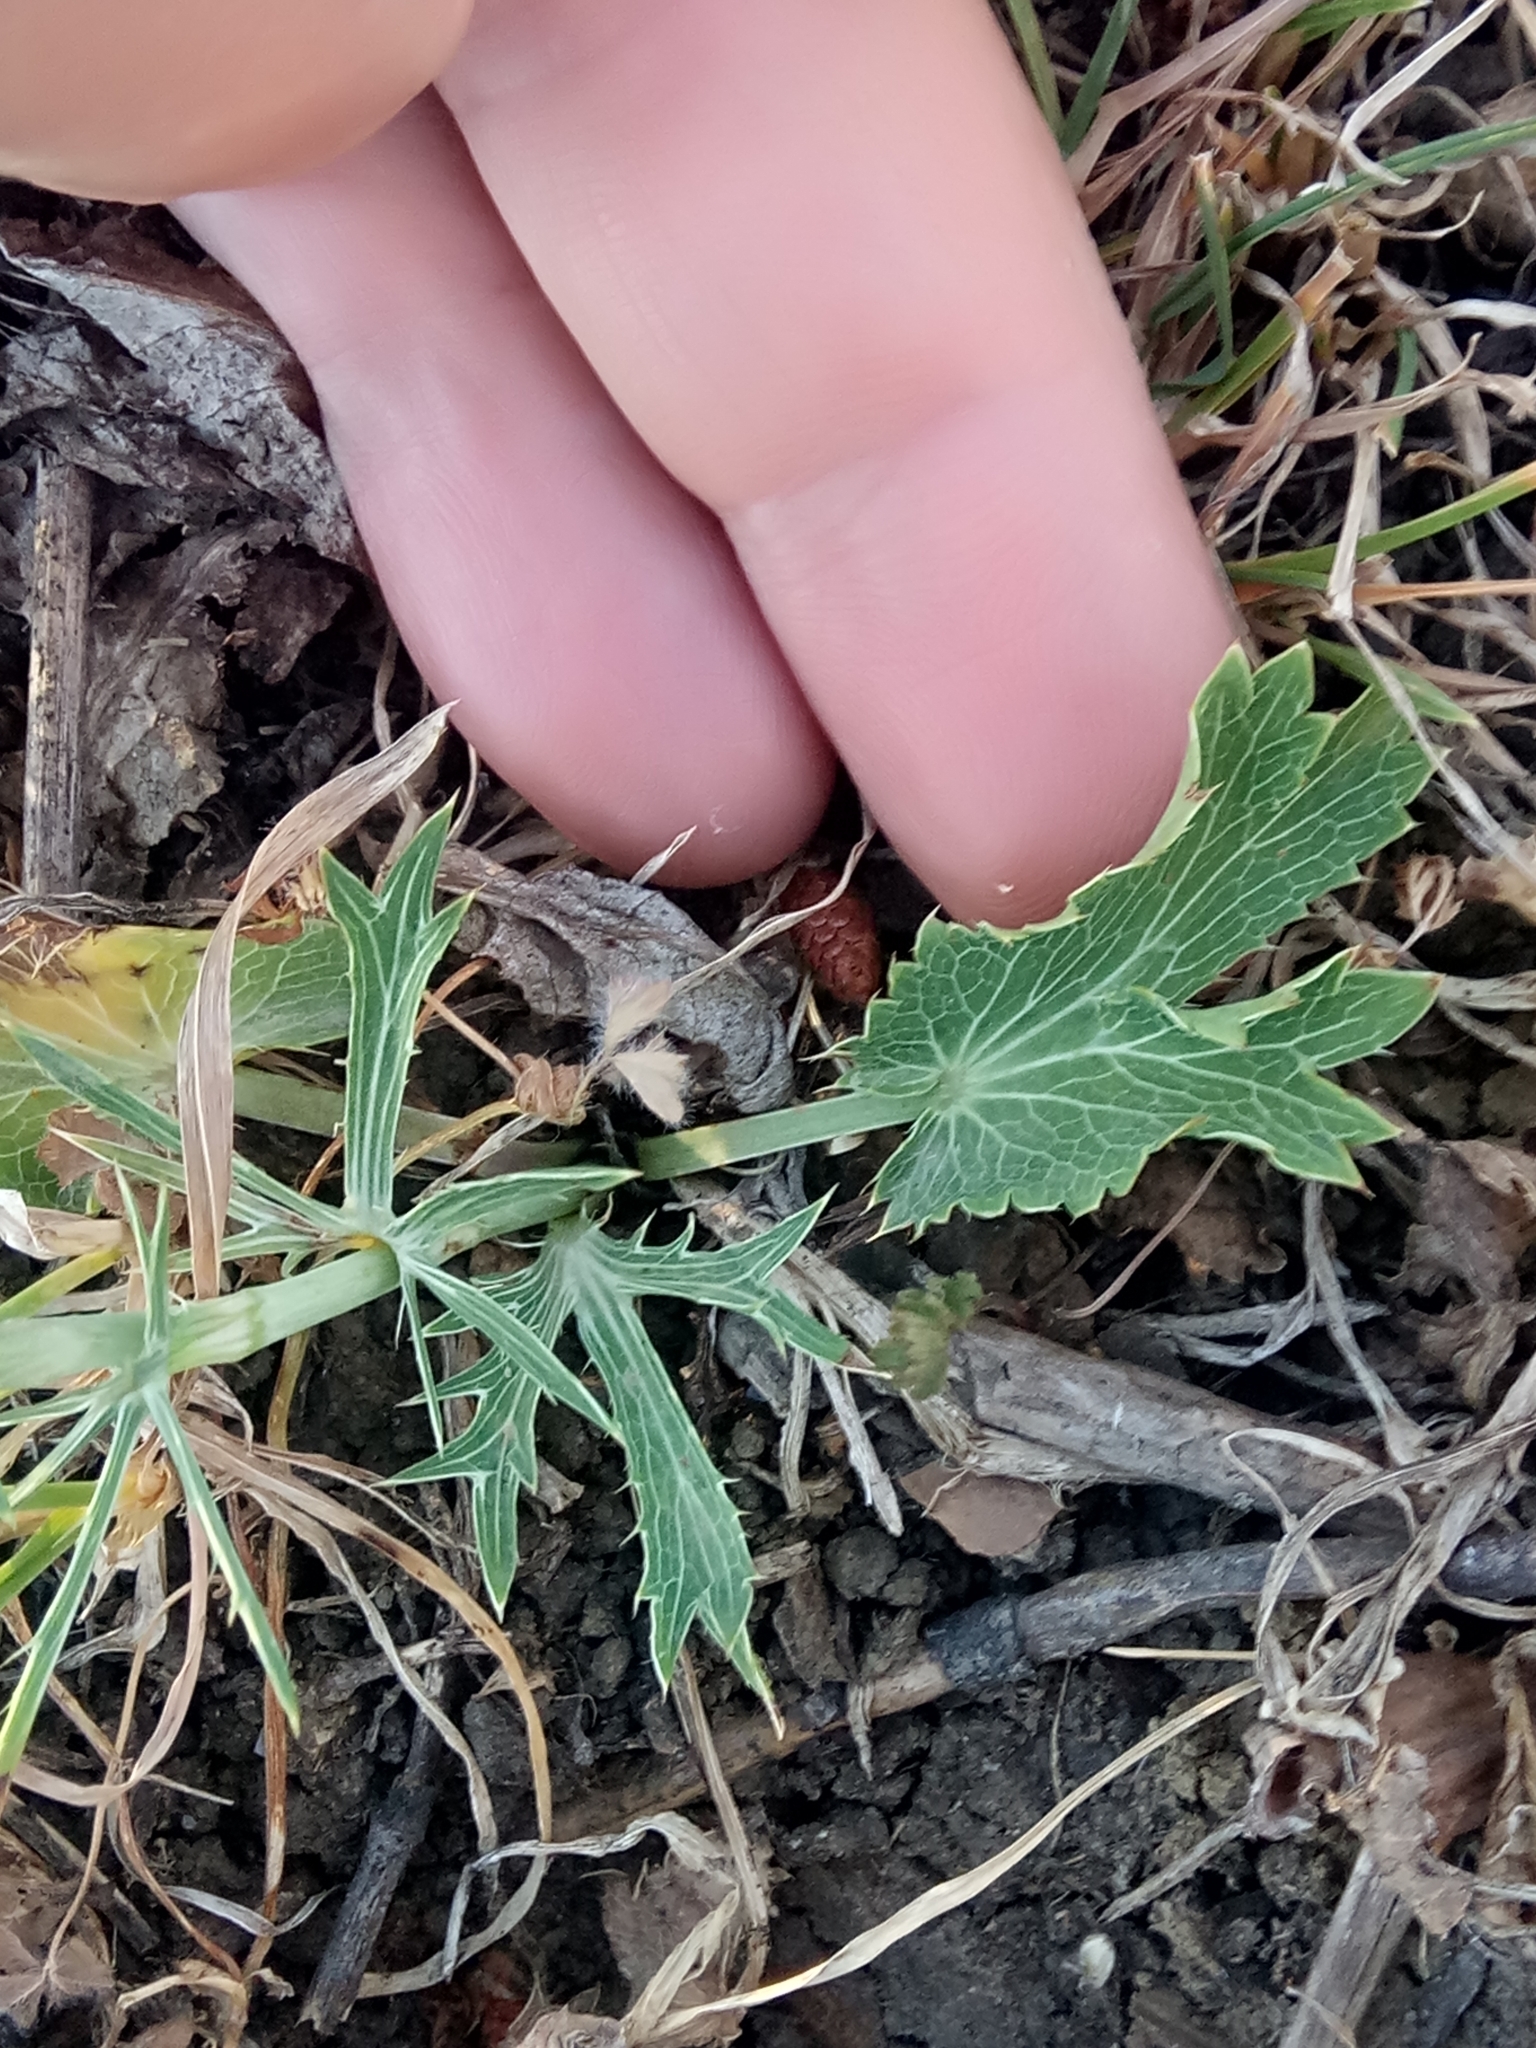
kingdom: Plantae
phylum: Tracheophyta
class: Magnoliopsida
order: Apiales
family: Apiaceae
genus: Eryngium
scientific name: Eryngium tricuspidatum
